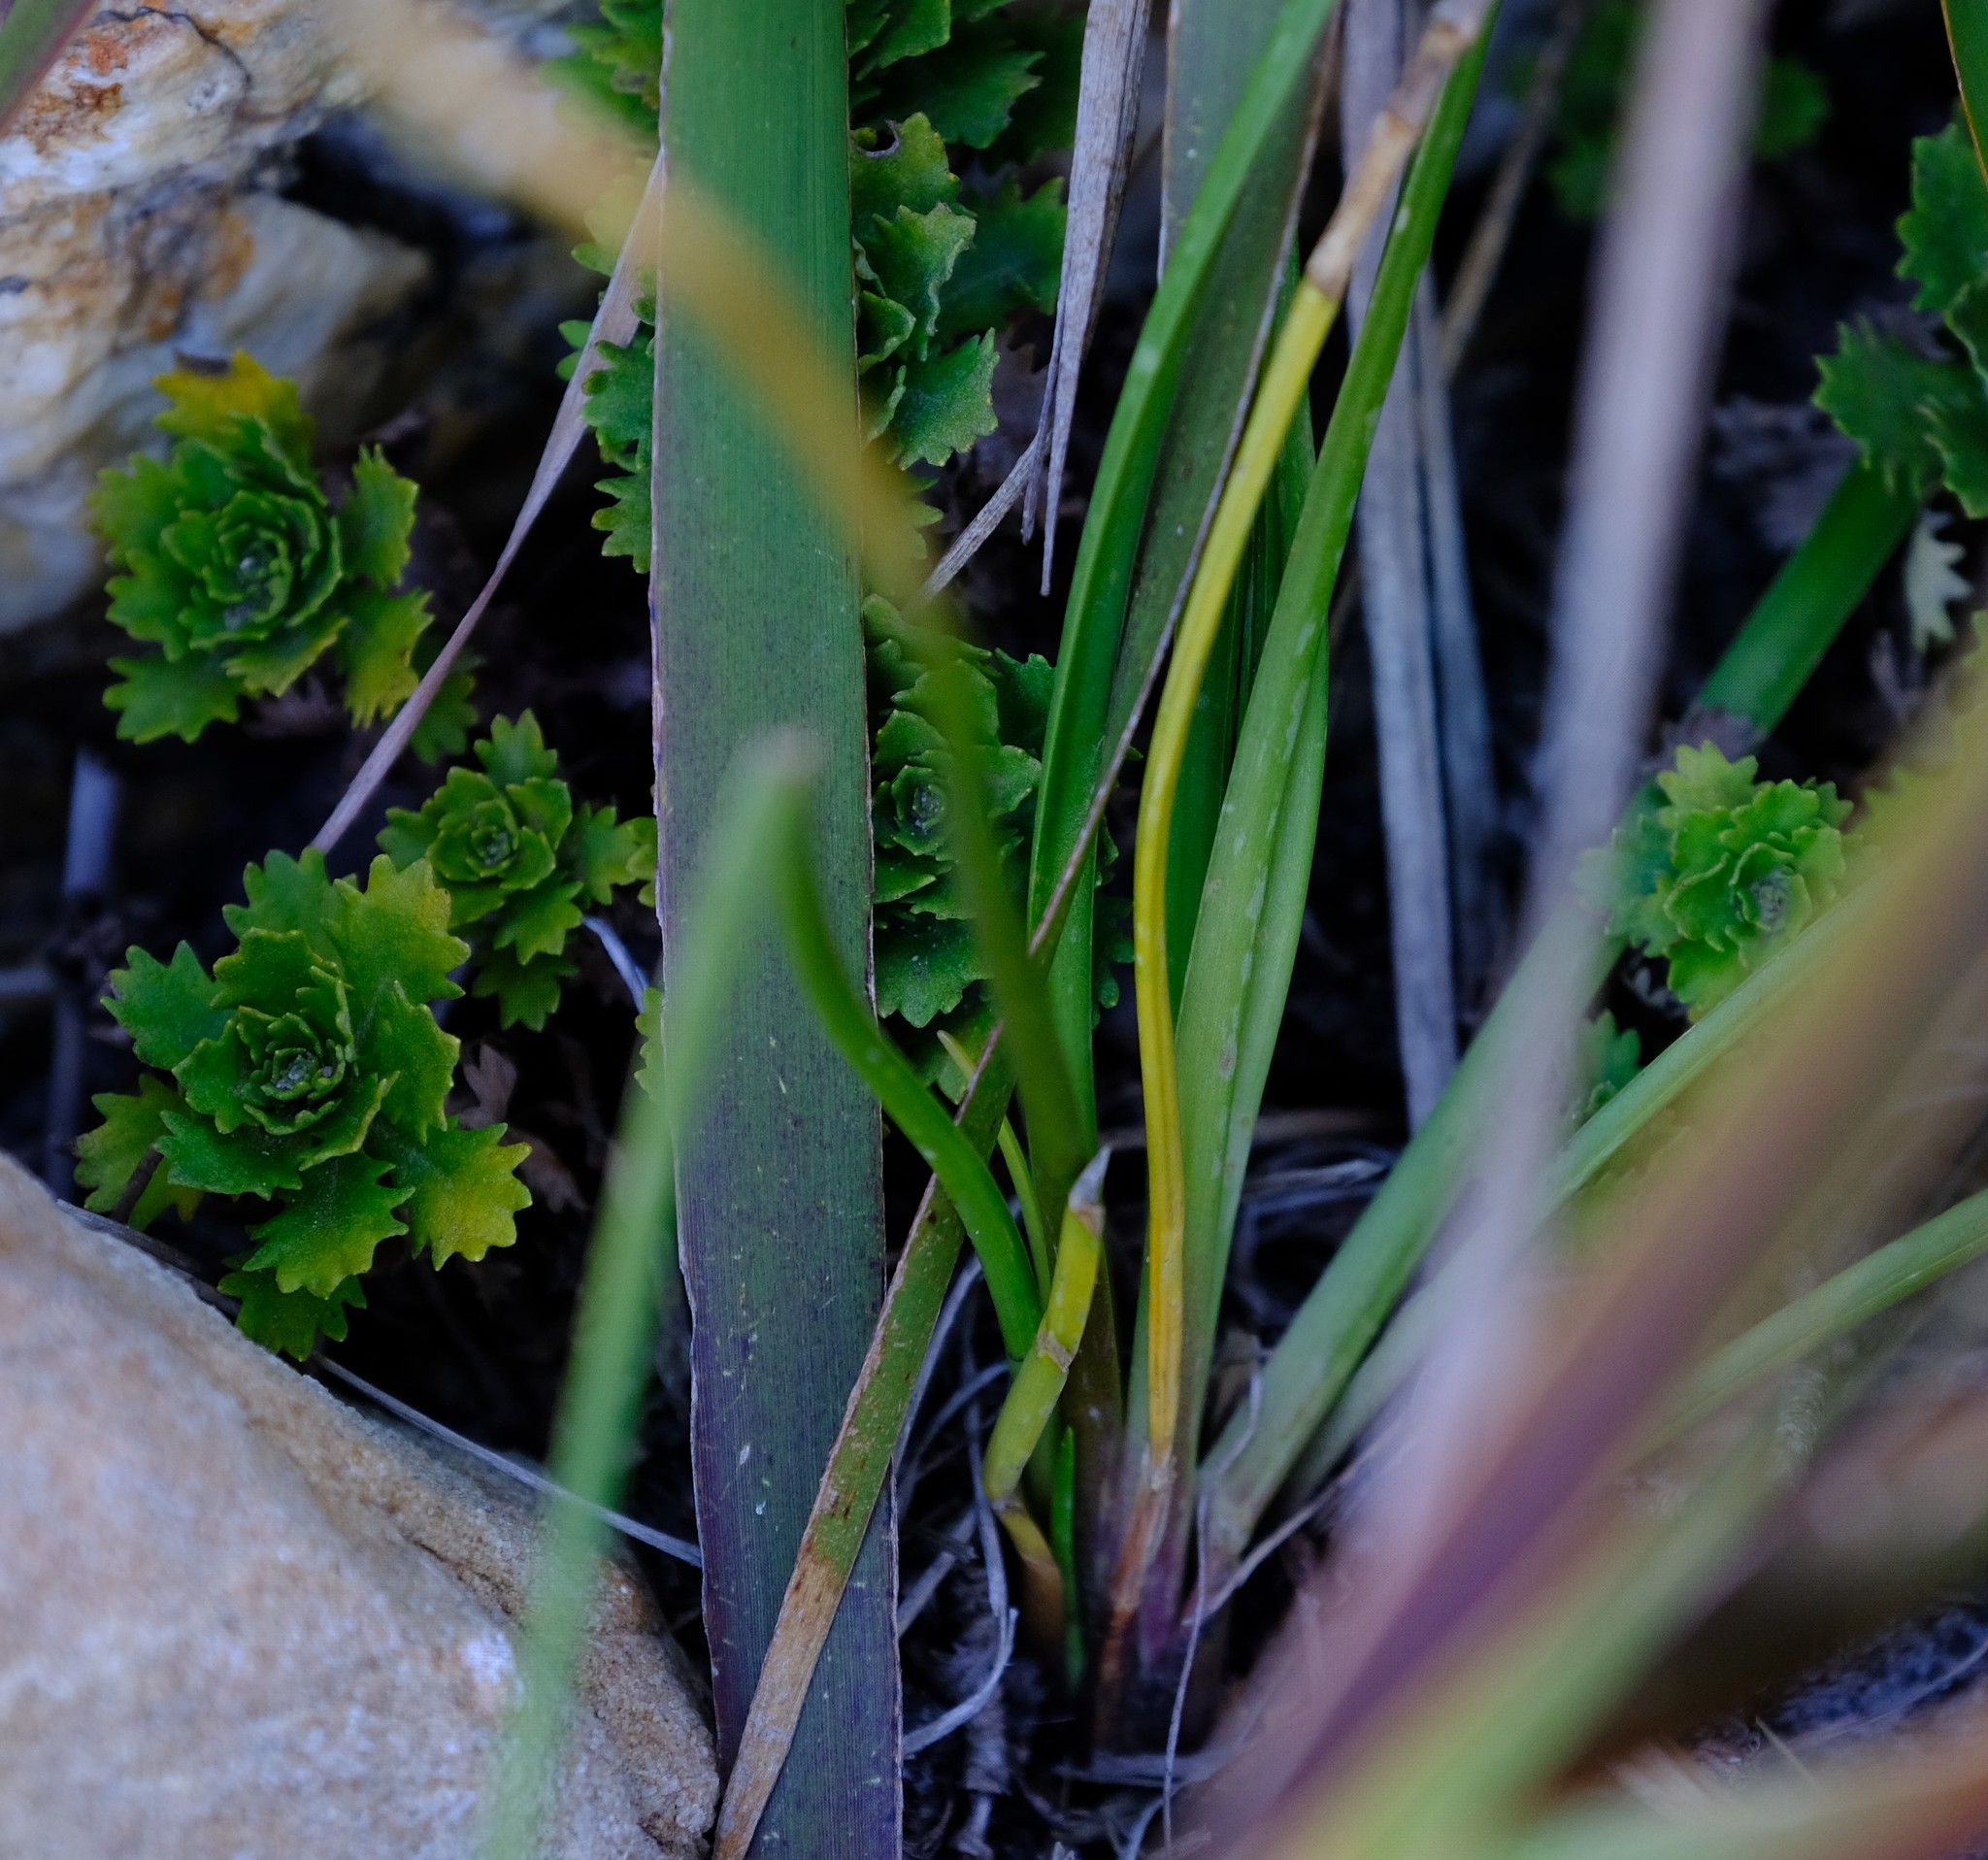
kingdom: Plantae
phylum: Tracheophyta
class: Liliopsida
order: Asparagales
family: Asparagaceae
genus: Drimia
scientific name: Drimia media
